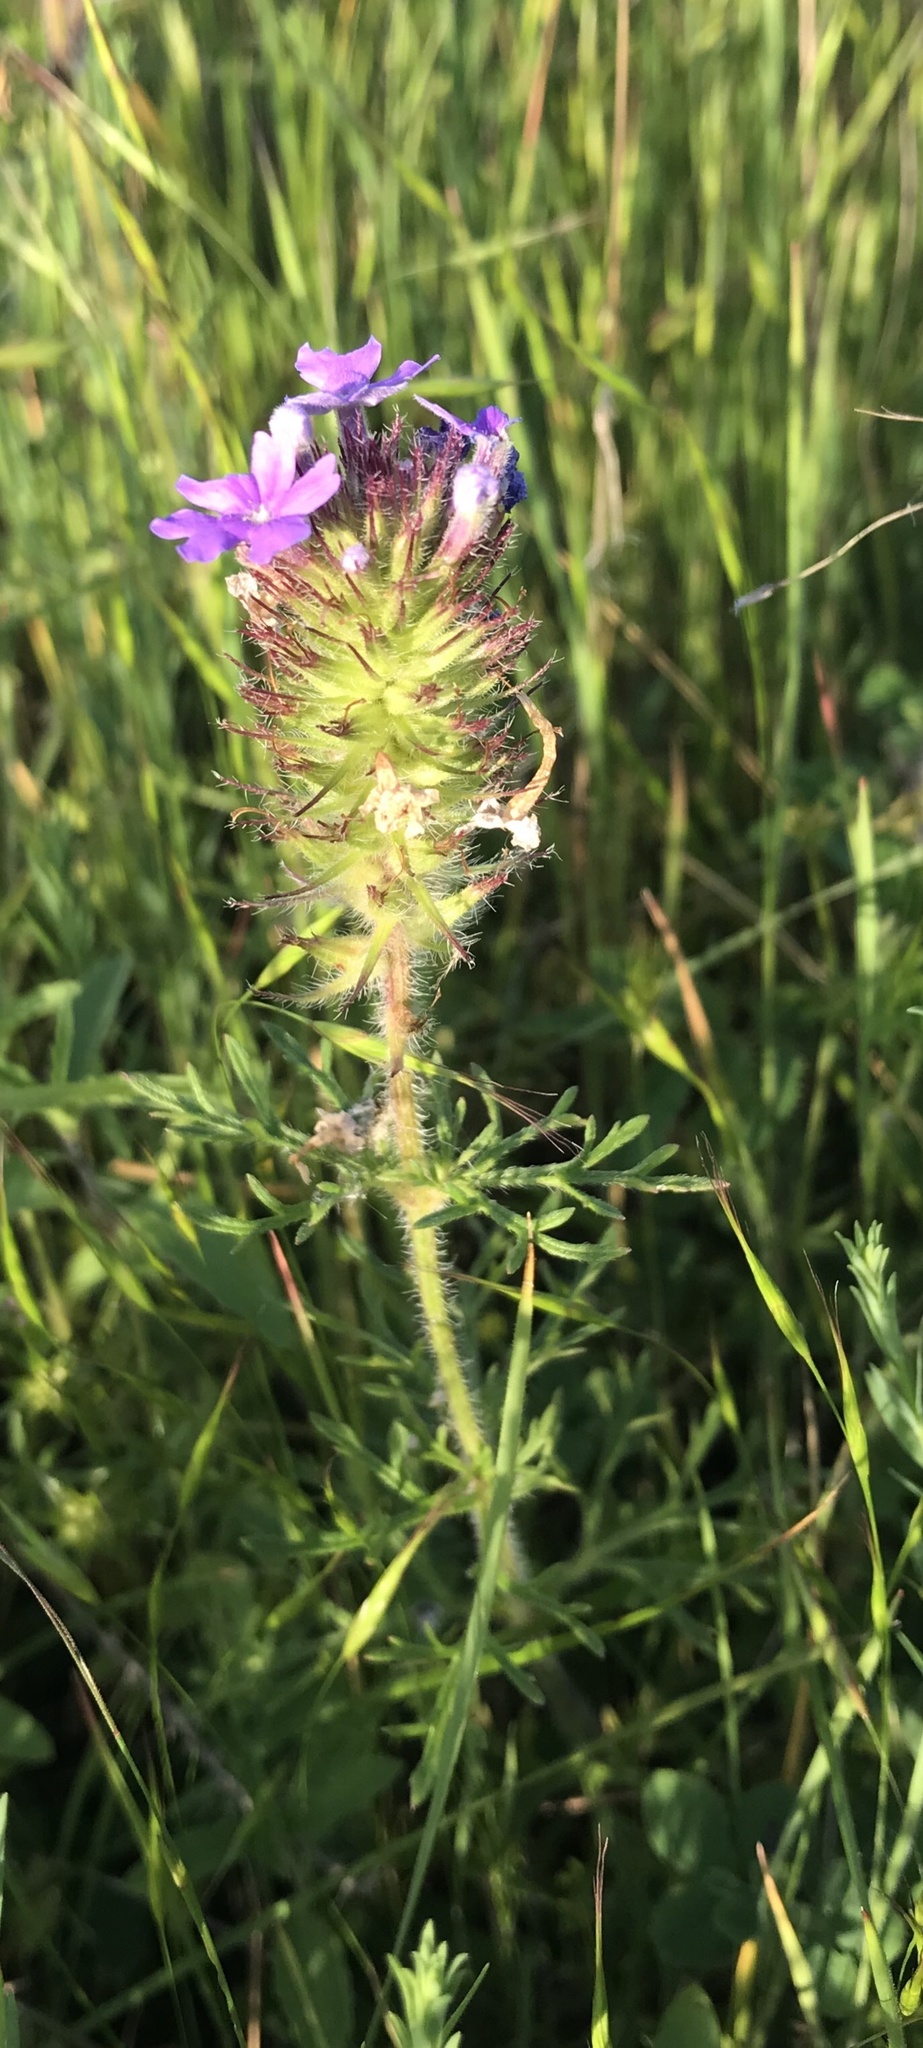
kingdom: Plantae
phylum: Tracheophyta
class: Magnoliopsida
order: Lamiales
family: Verbenaceae
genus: Verbena
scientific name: Verbena bipinnatifida
